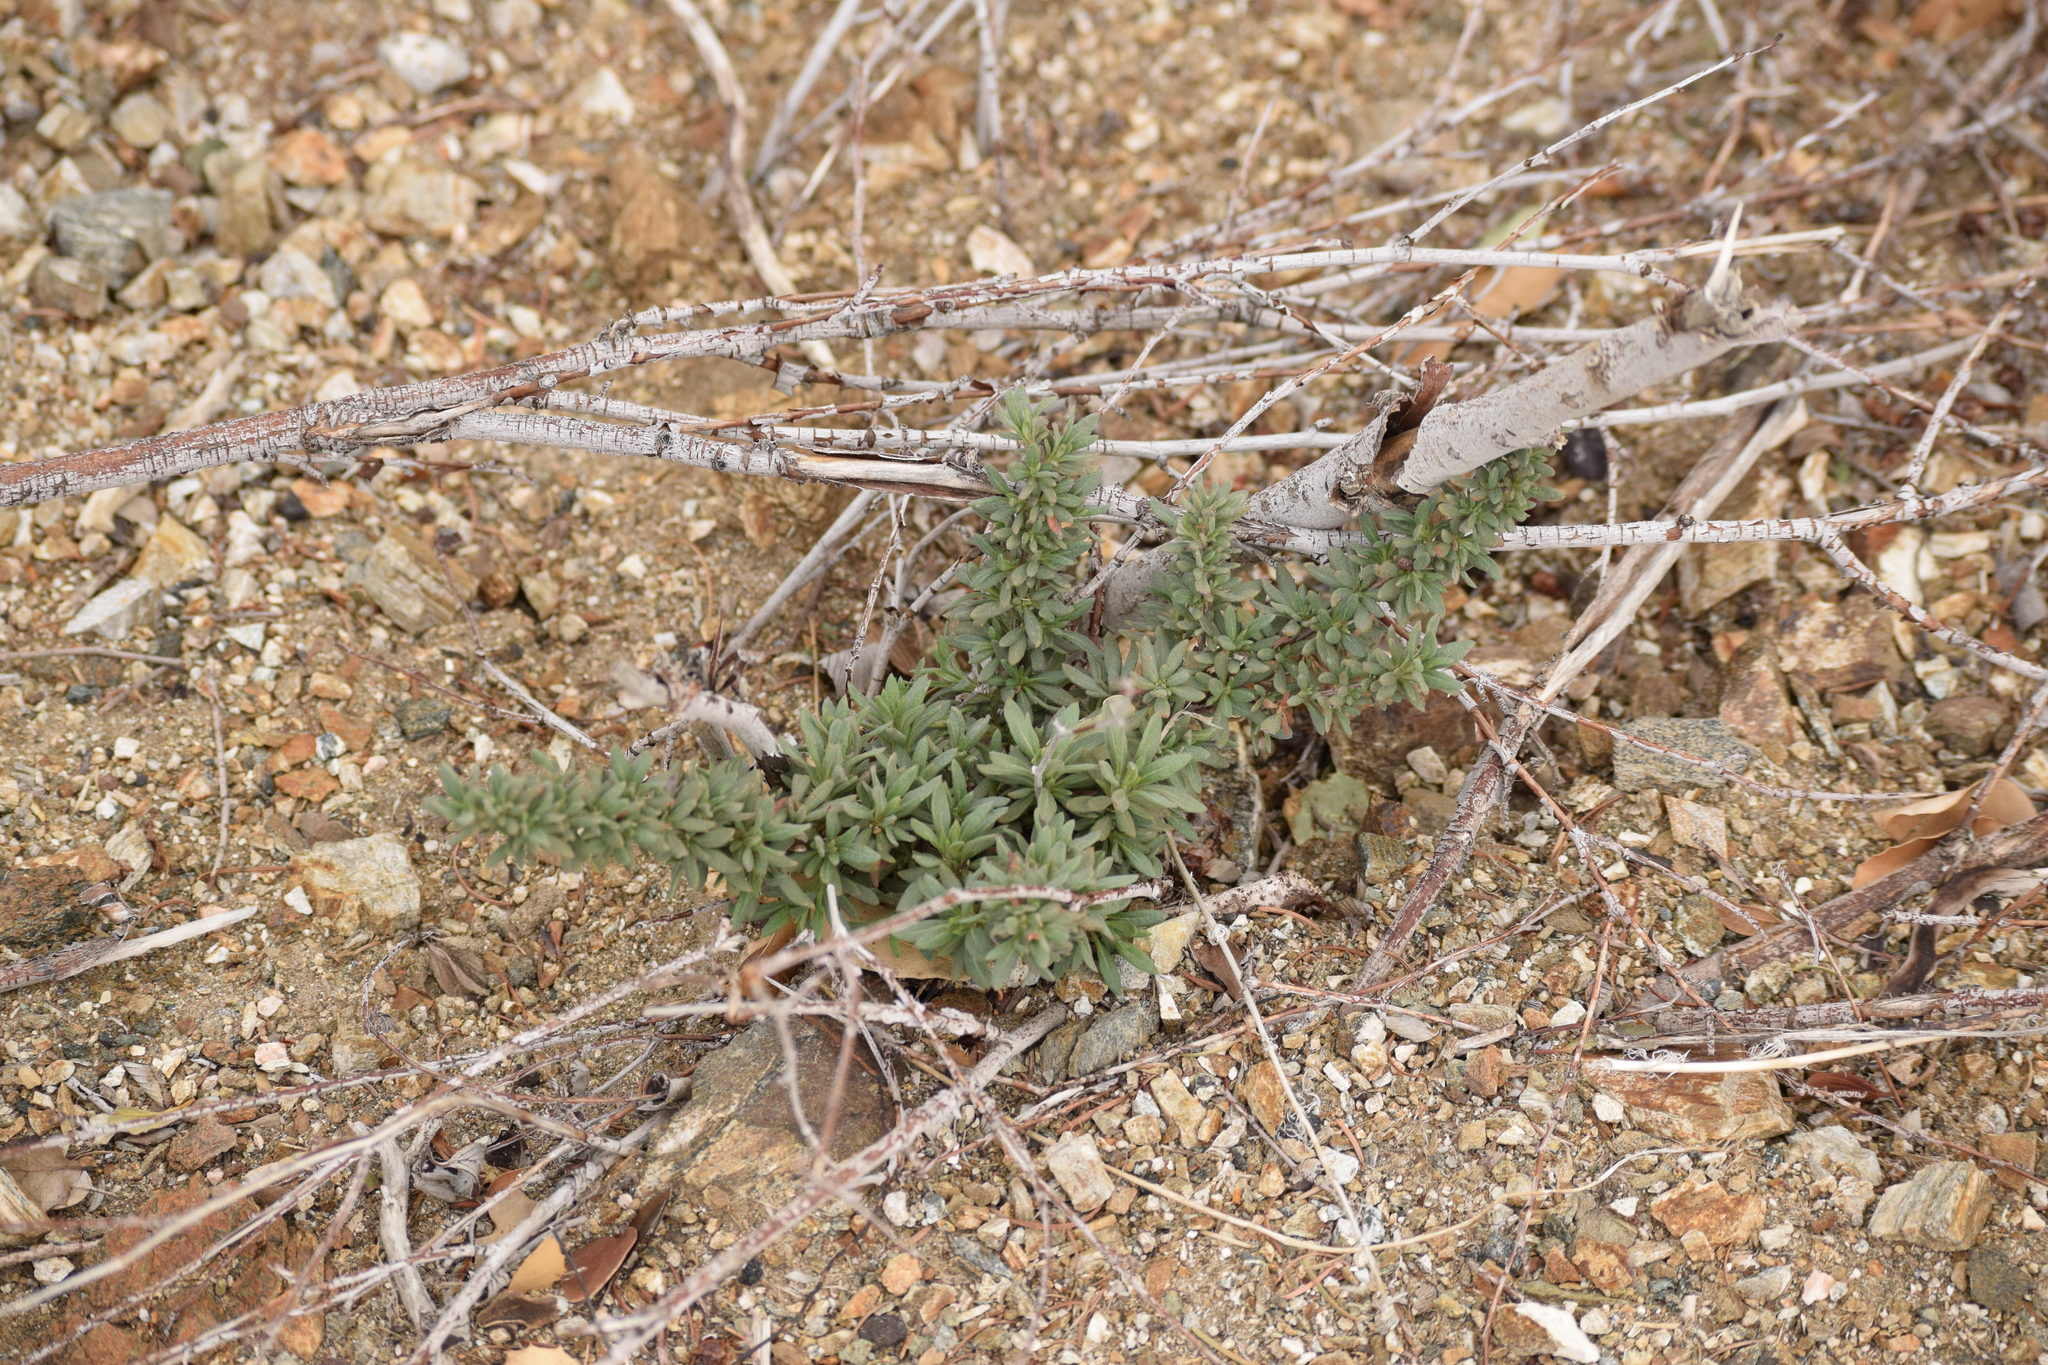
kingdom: Plantae
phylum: Tracheophyta
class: Magnoliopsida
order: Caryophyllales
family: Polygonaceae
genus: Eriogonum
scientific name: Eriogonum fasciculatum
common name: California wild buckwheat
